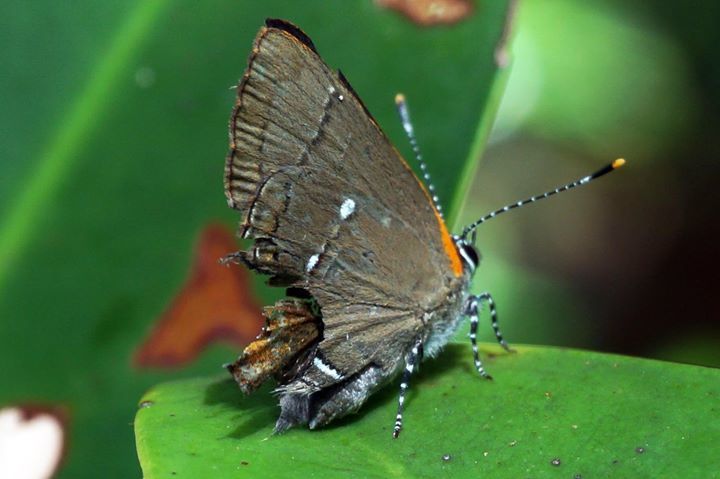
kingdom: Animalia
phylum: Arthropoda
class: Insecta
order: Lepidoptera
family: Lycaenidae
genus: Thecla
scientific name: Thecla angelia
